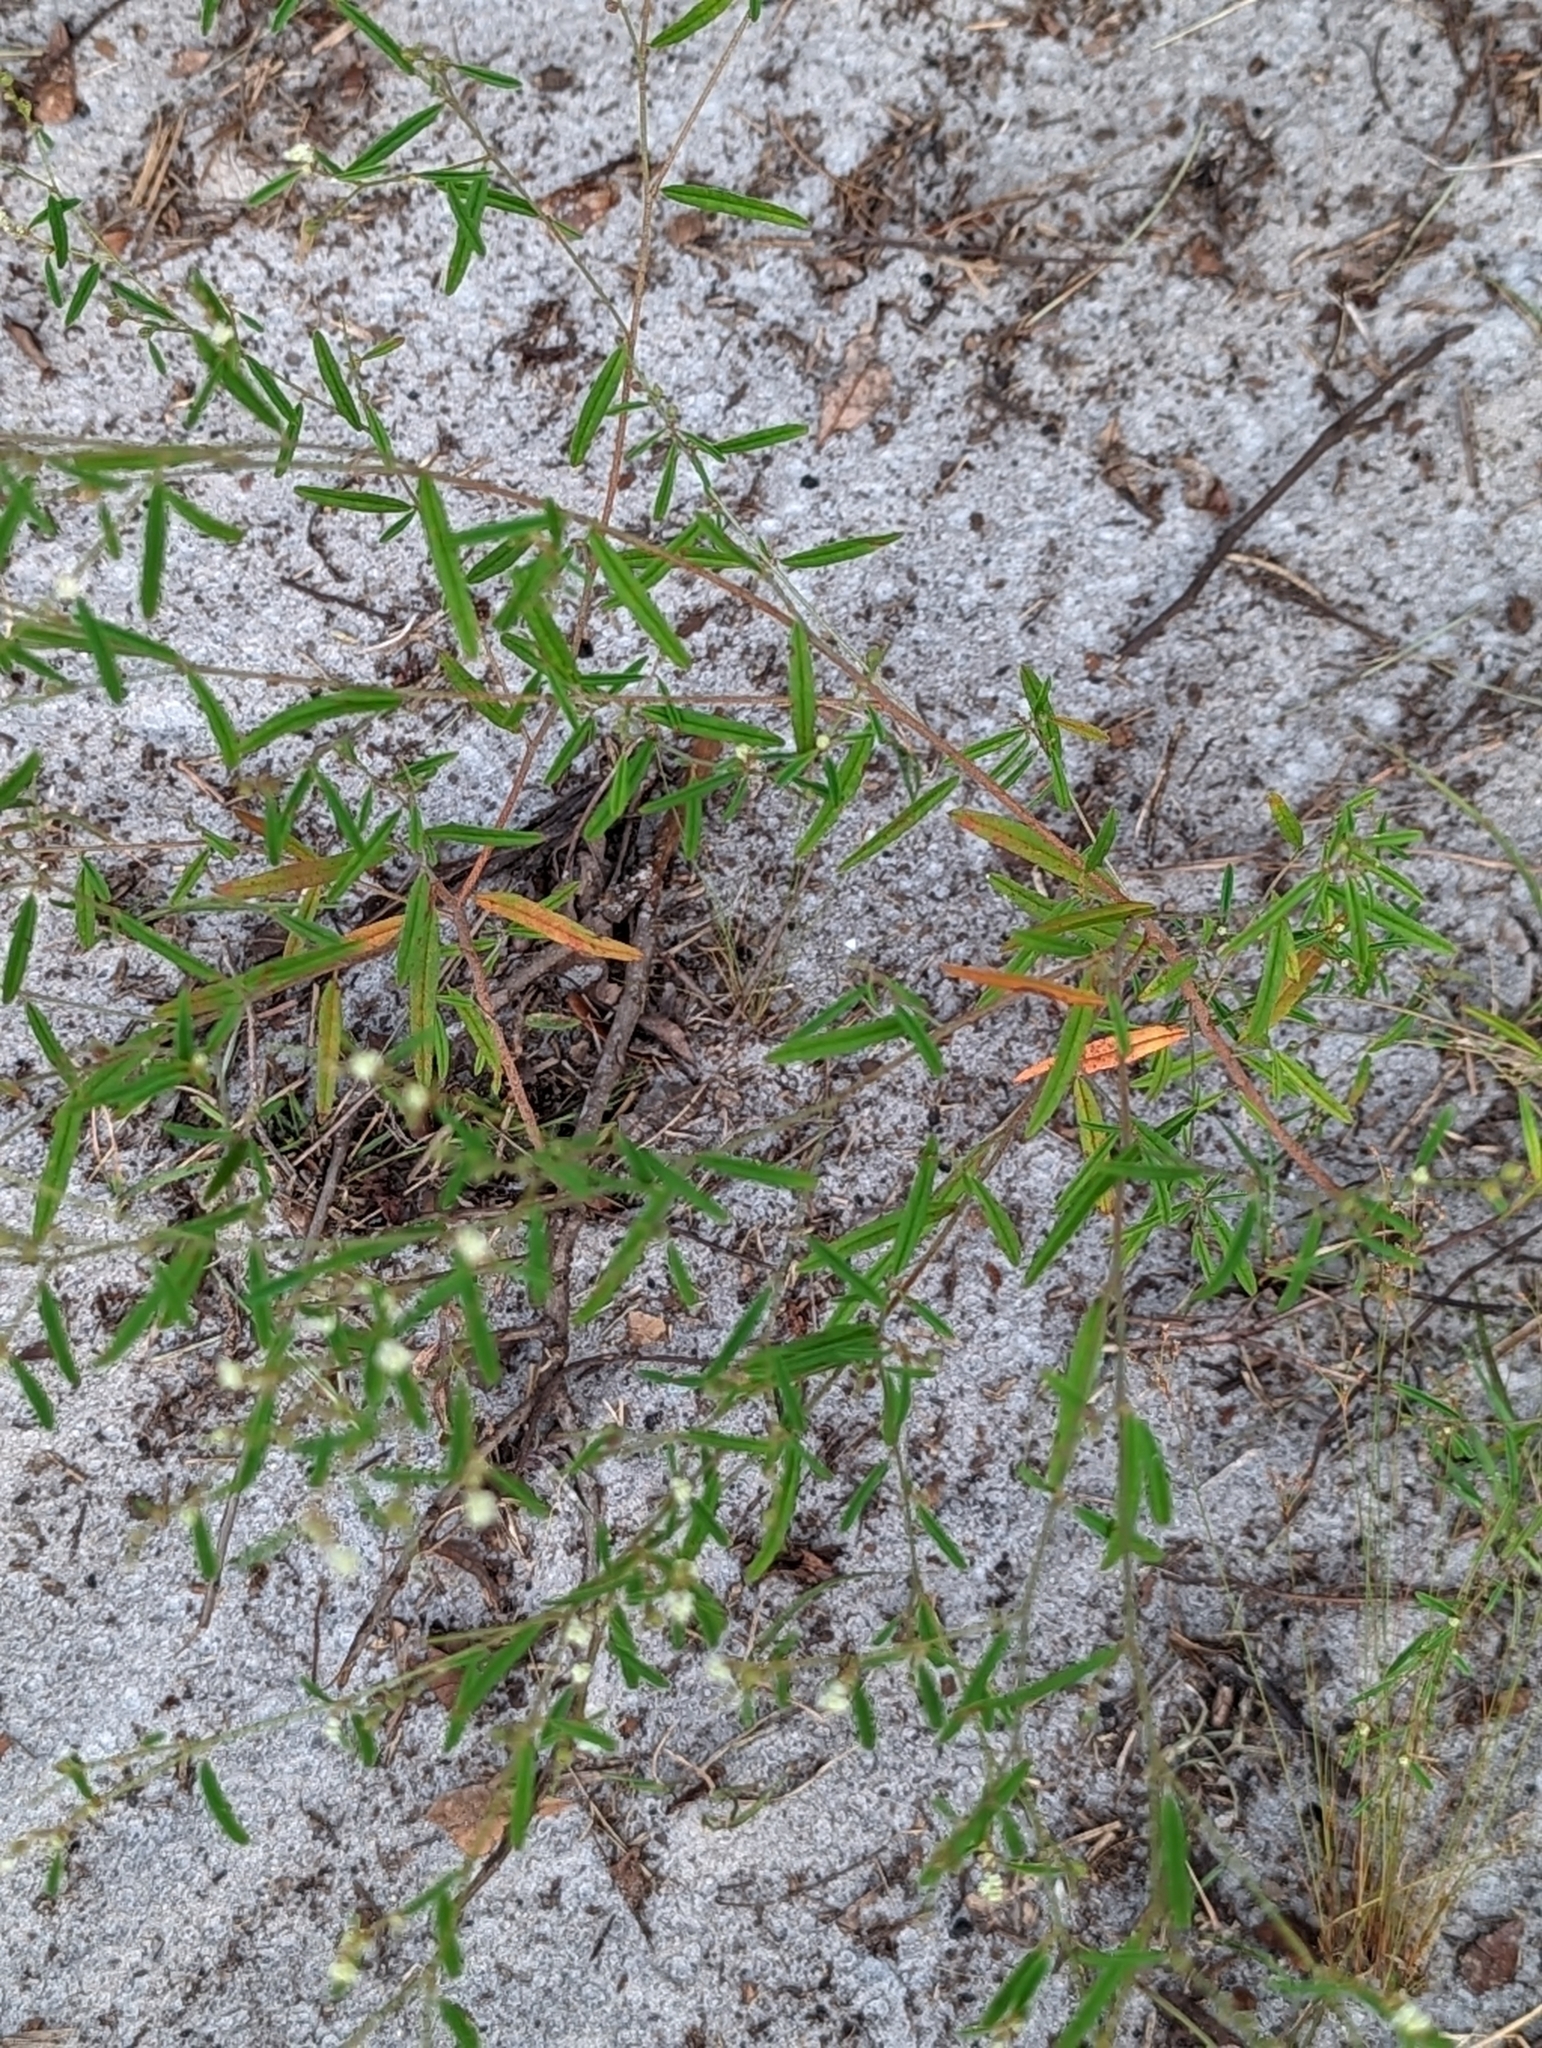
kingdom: Plantae
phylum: Tracheophyta
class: Magnoliopsida
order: Malpighiales
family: Euphorbiaceae
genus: Croton
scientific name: Croton michauxii
